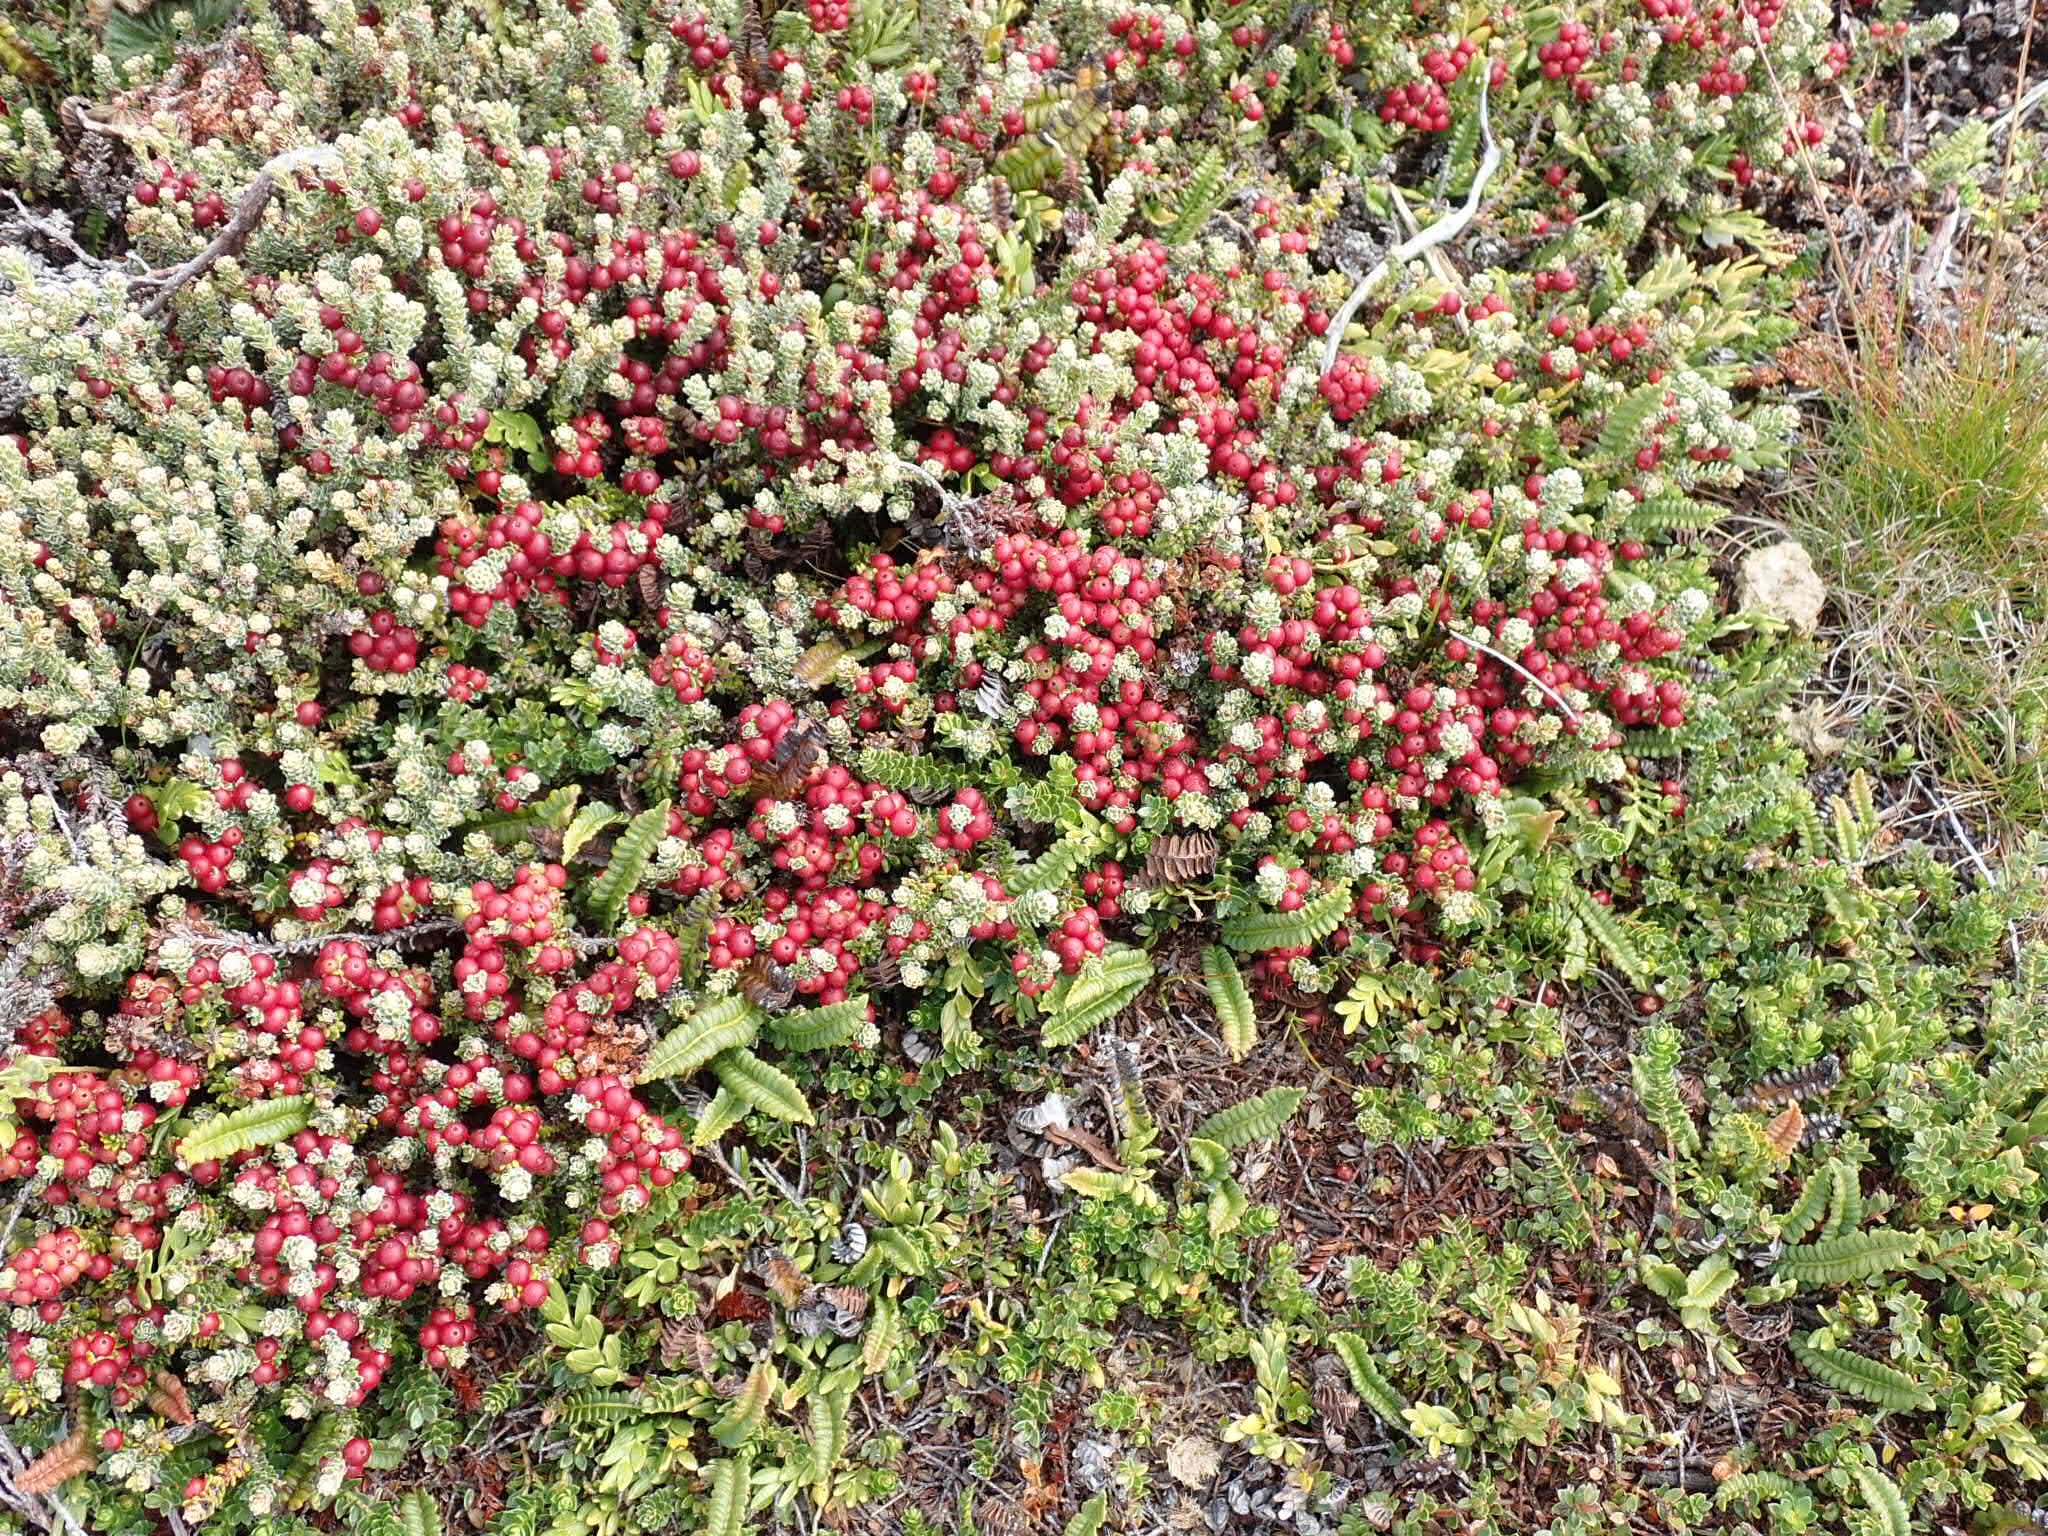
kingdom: Plantae
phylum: Tracheophyta
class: Magnoliopsida
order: Ericales
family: Ericaceae
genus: Empetrum
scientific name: Empetrum rubrum
